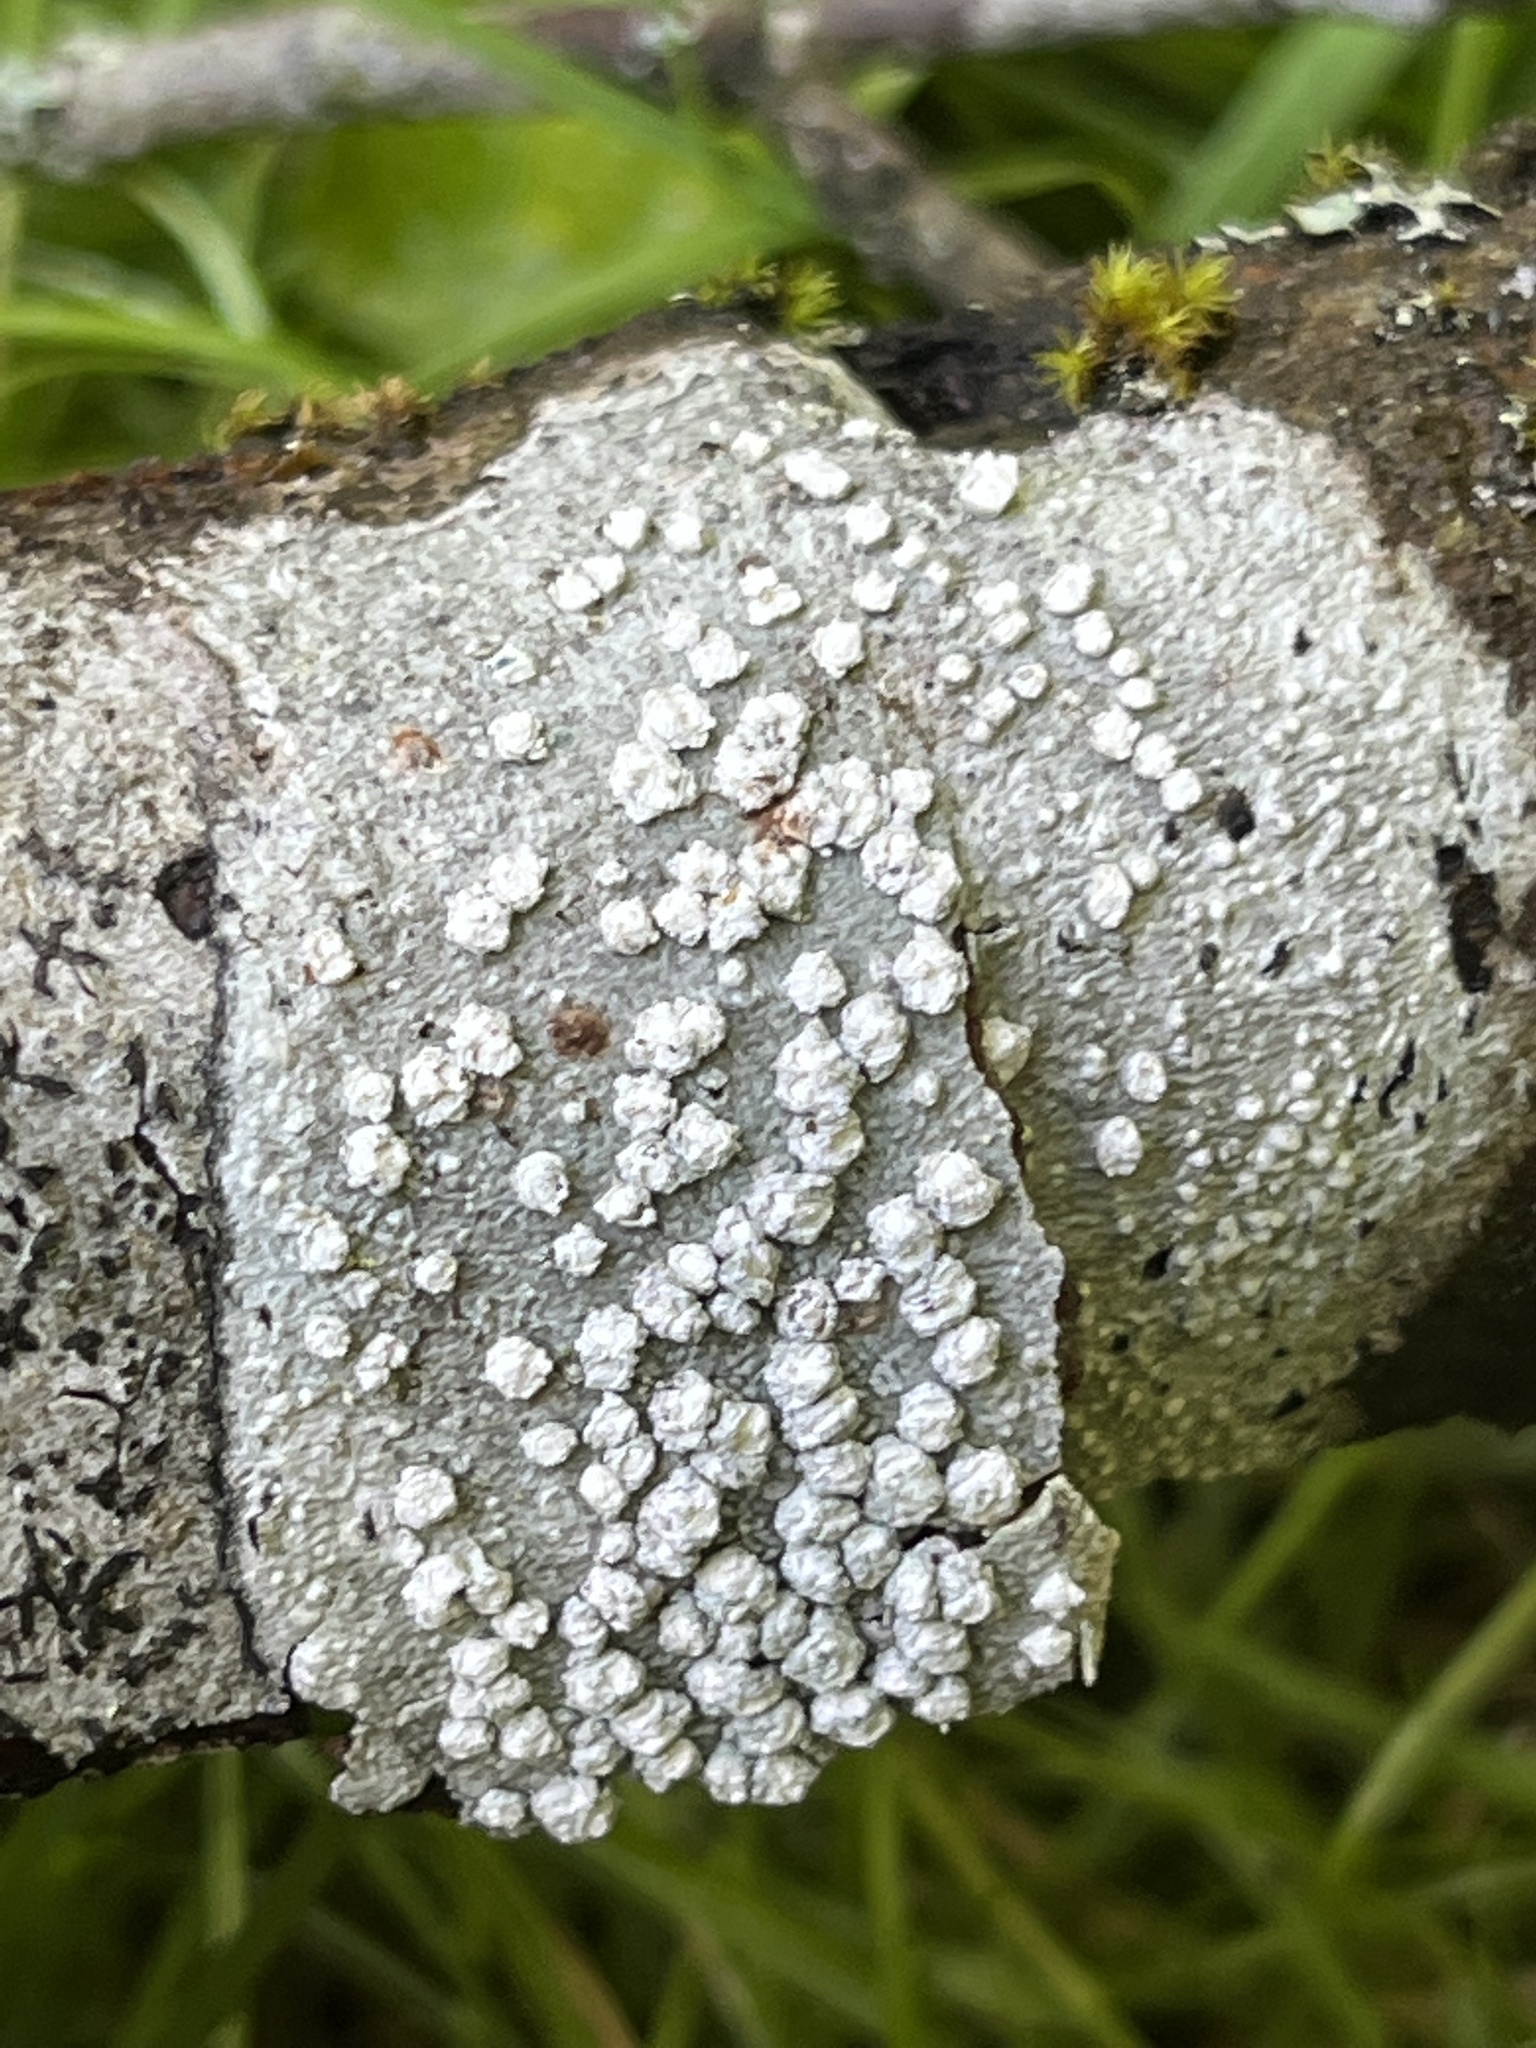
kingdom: Fungi
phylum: Ascomycota
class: Lecanoromycetes
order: Pertusariales
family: Pertusariaceae
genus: Lepra
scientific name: Lepra amara
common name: Bitter wart lichen
